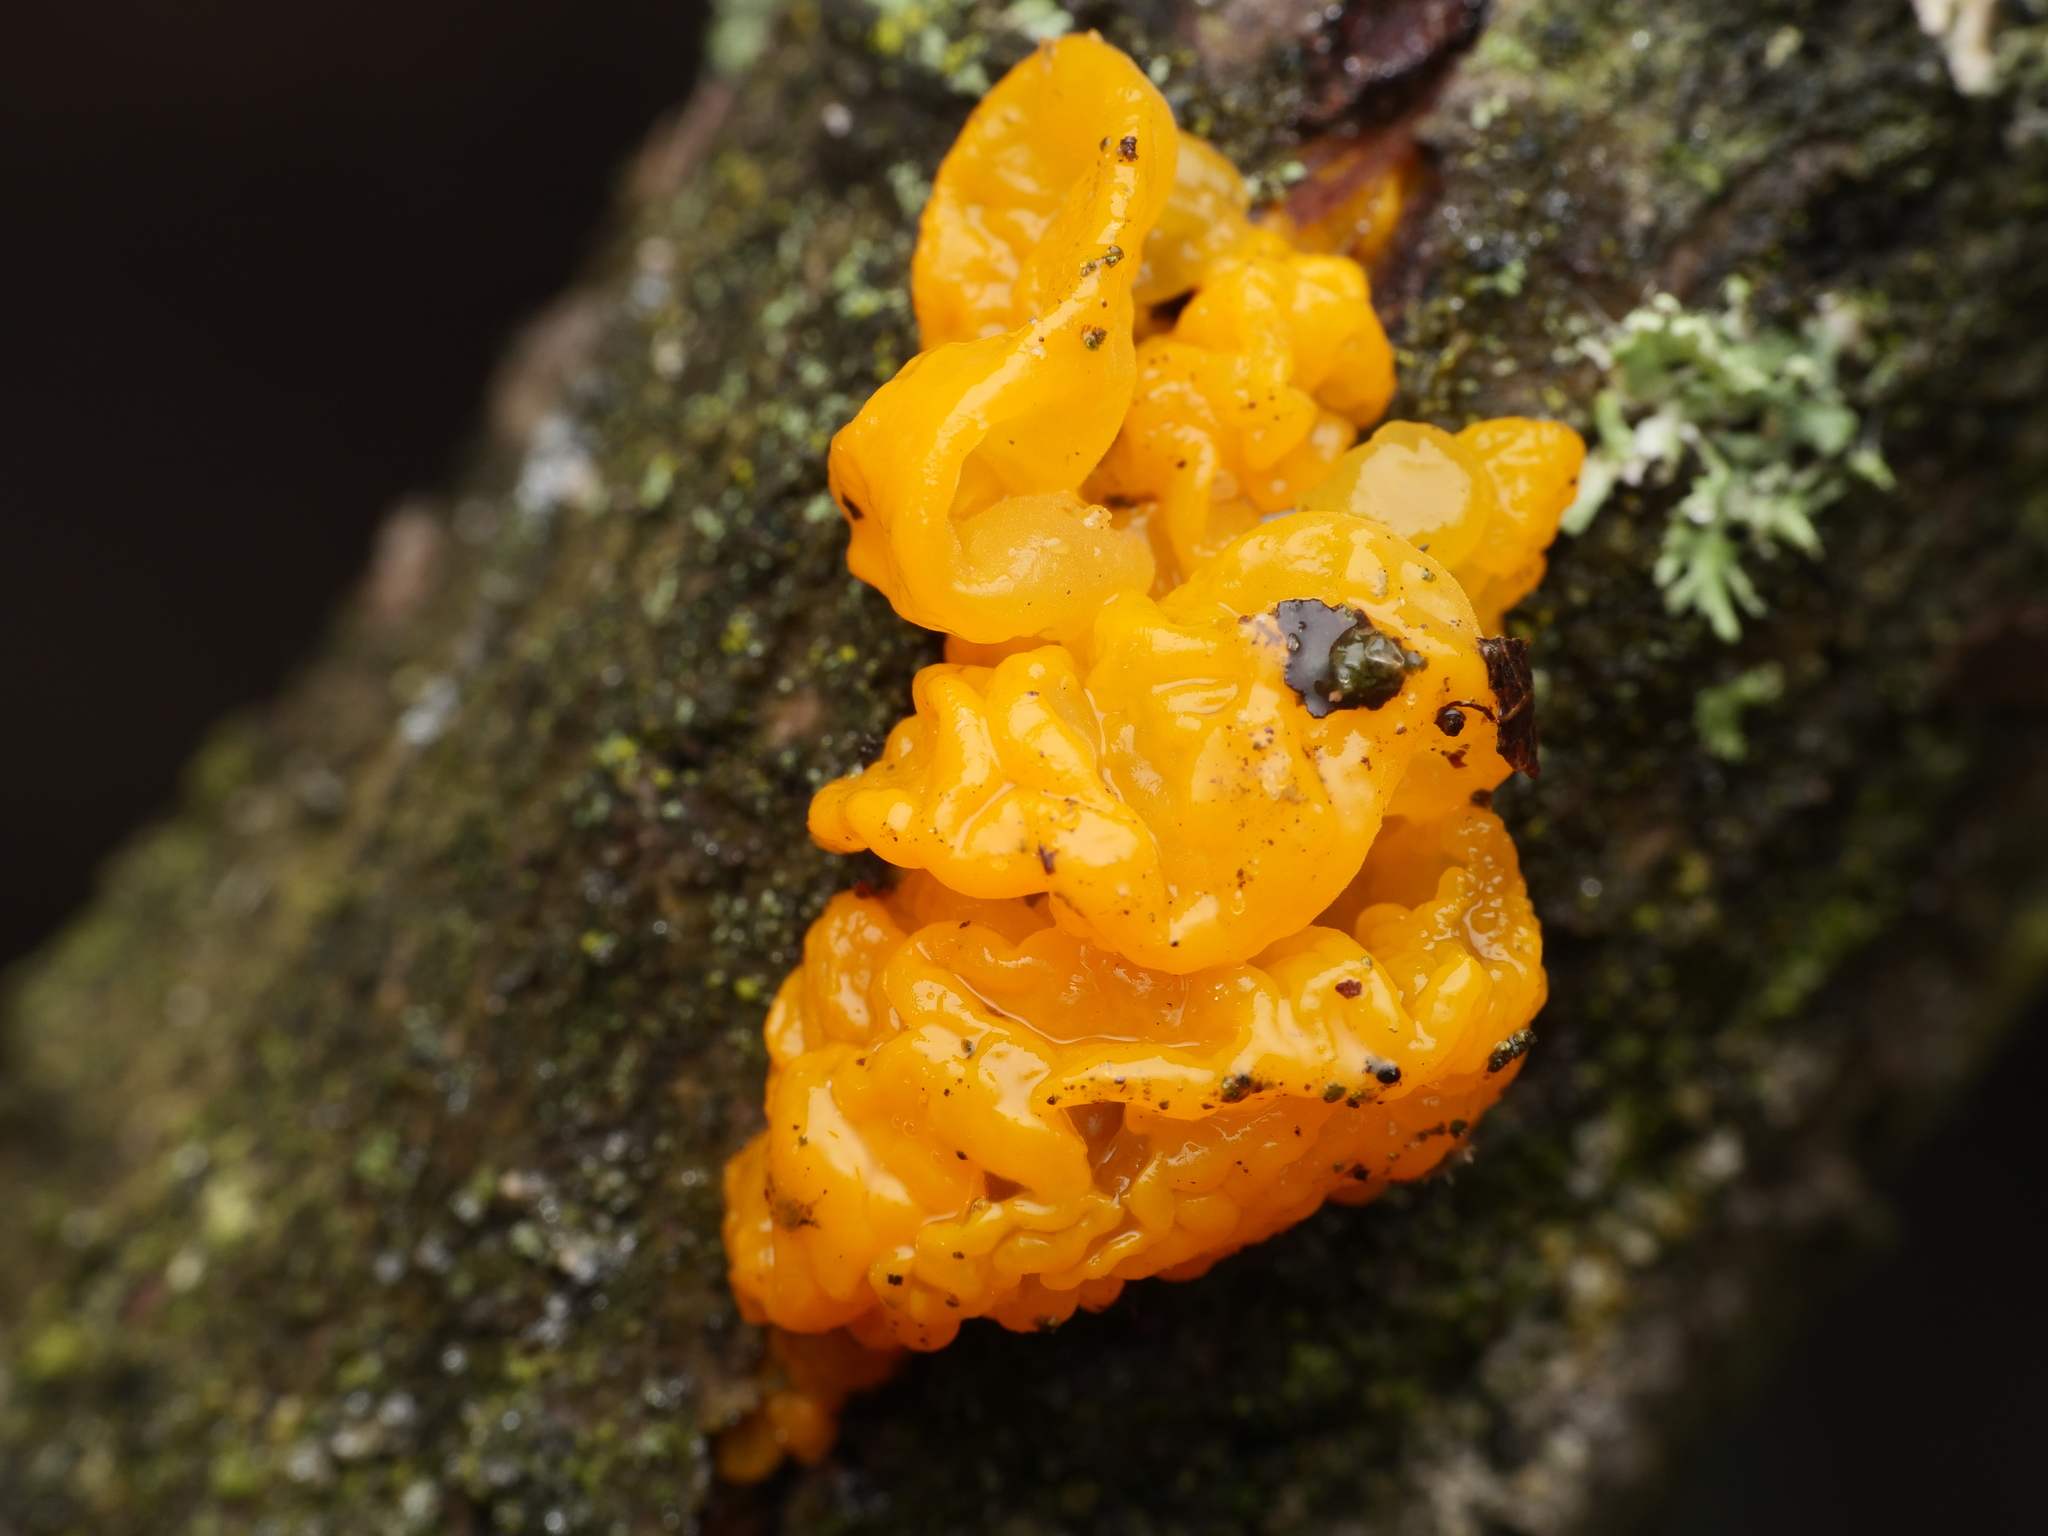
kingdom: Fungi
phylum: Basidiomycota
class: Tremellomycetes
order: Tremellales
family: Tremellaceae
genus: Tremella
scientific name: Tremella mesenterica
